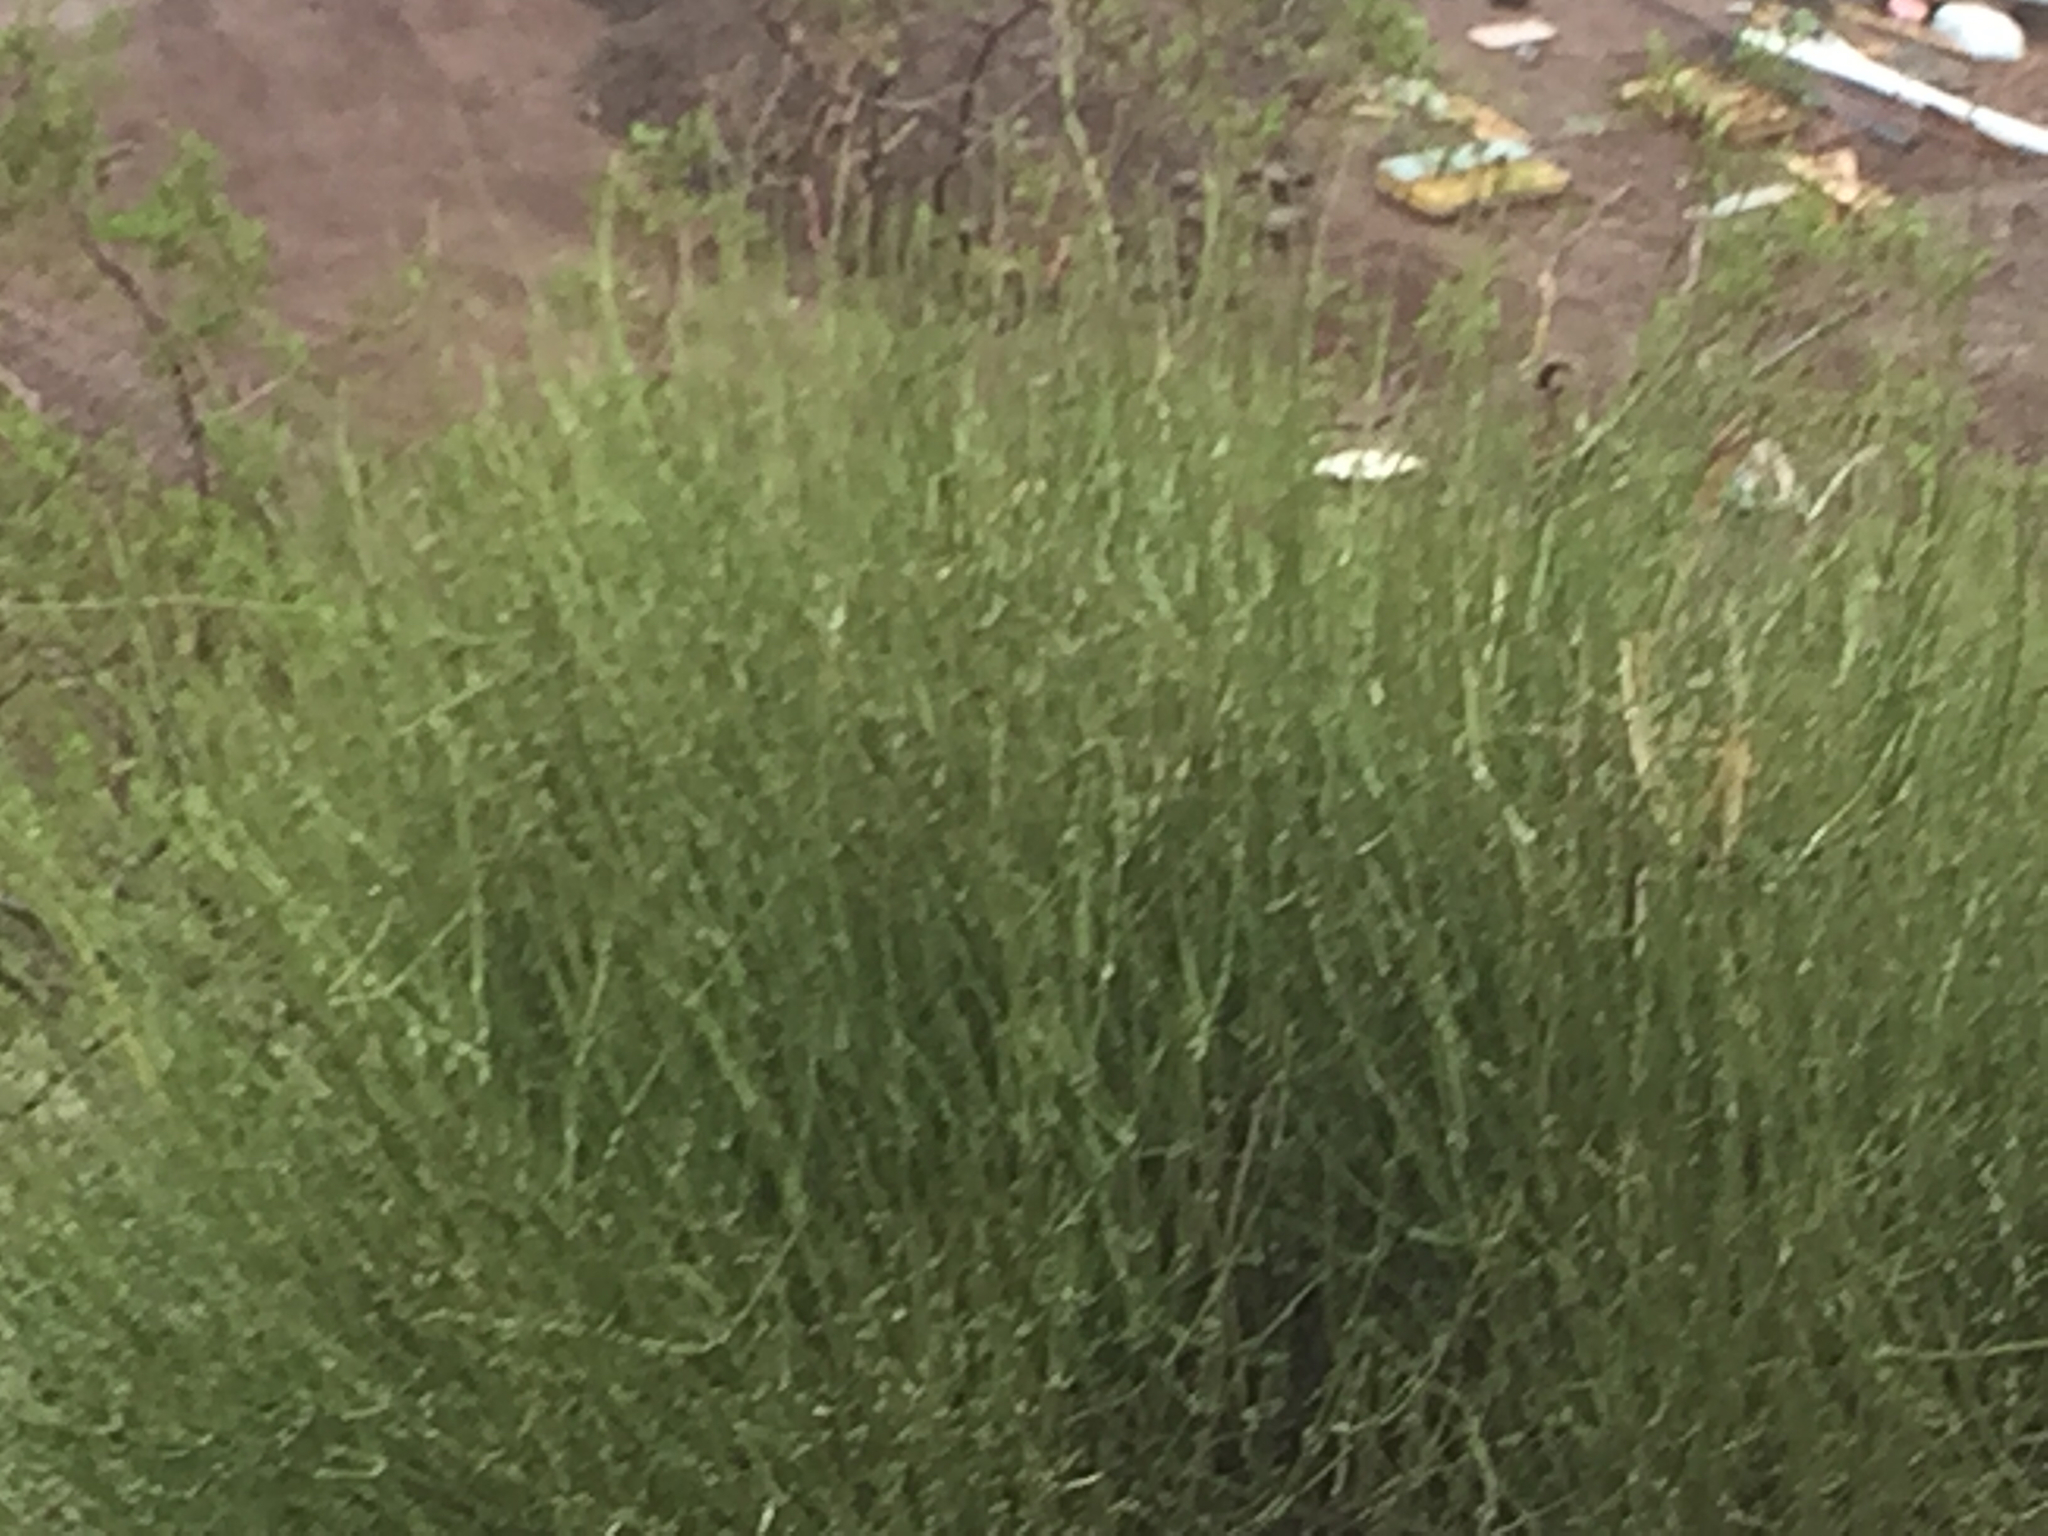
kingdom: Plantae
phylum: Tracheophyta
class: Gnetopsida
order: Ephedrales
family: Ephedraceae
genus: Ephedra
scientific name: Ephedra viridis
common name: Green ephedra
